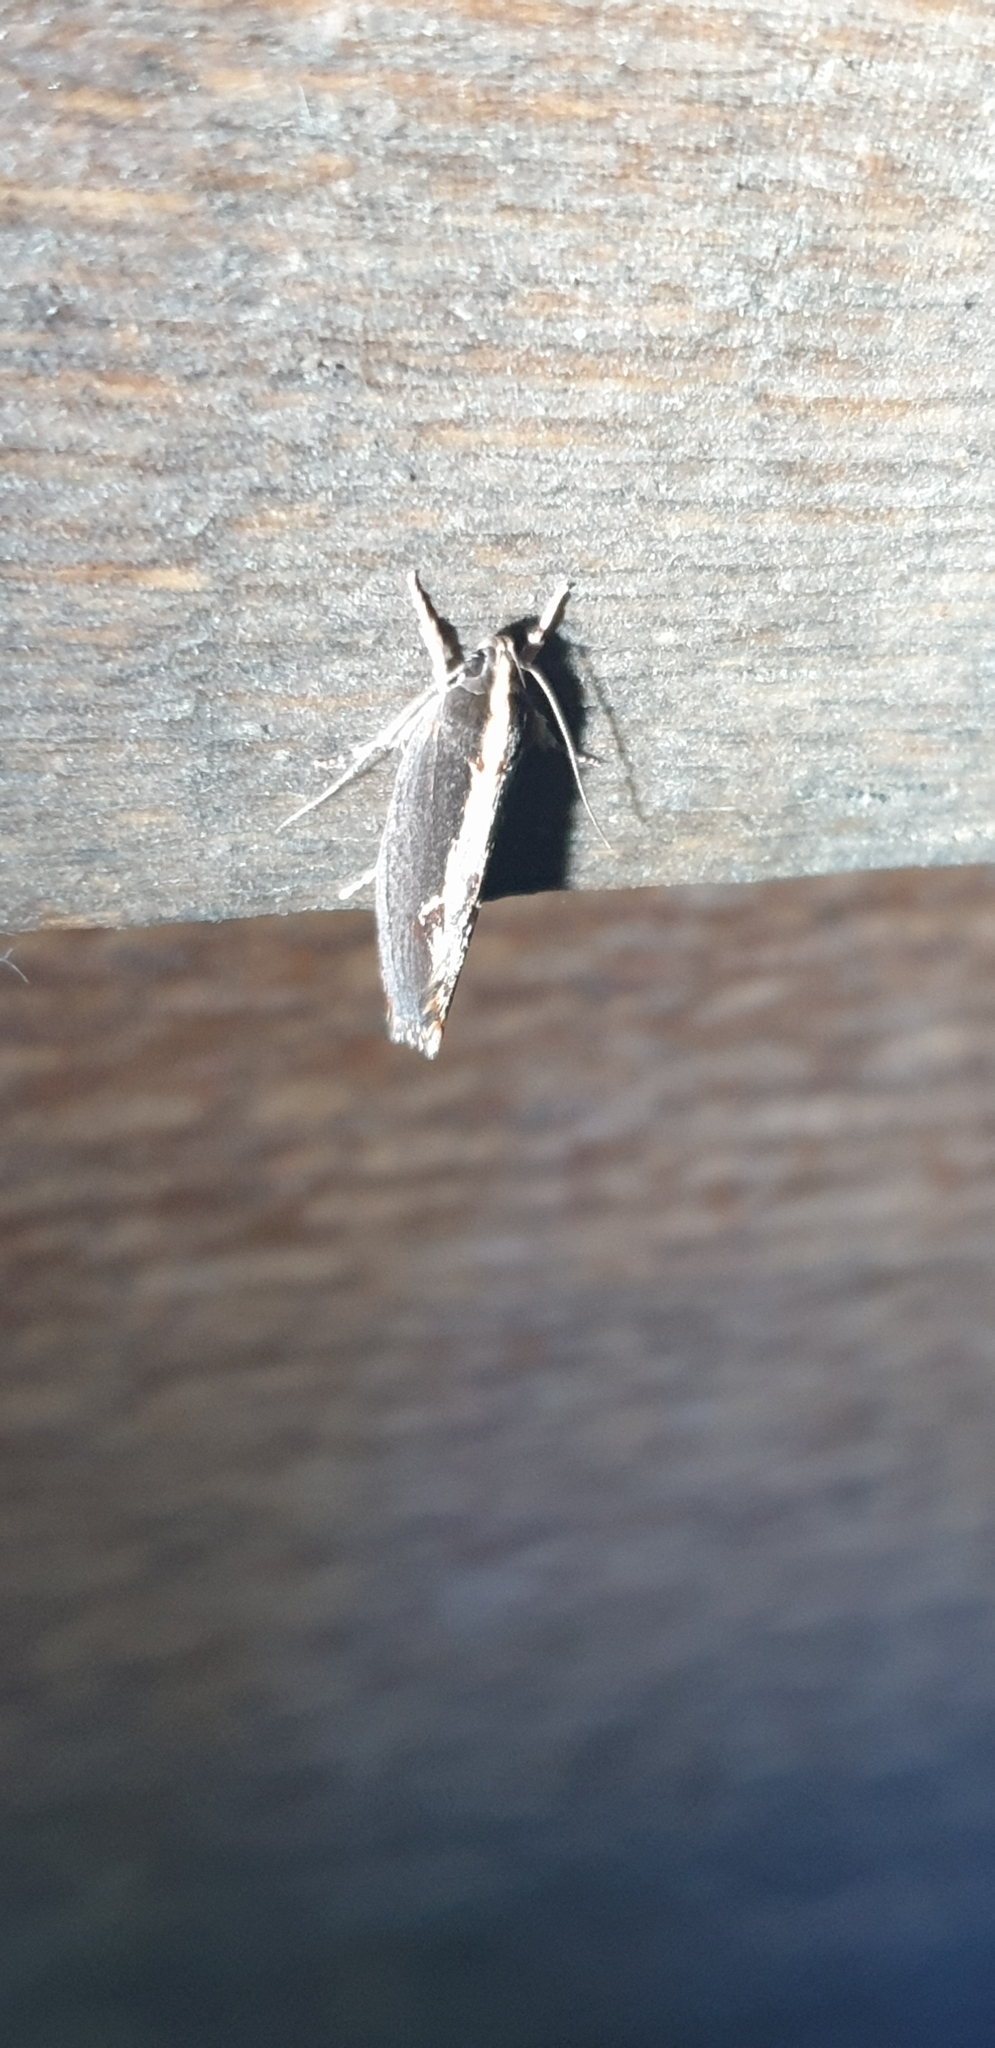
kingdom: Animalia
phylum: Arthropoda
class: Insecta
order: Lepidoptera
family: Oecophoridae
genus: Archaereta
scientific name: Archaereta dorsivittella
